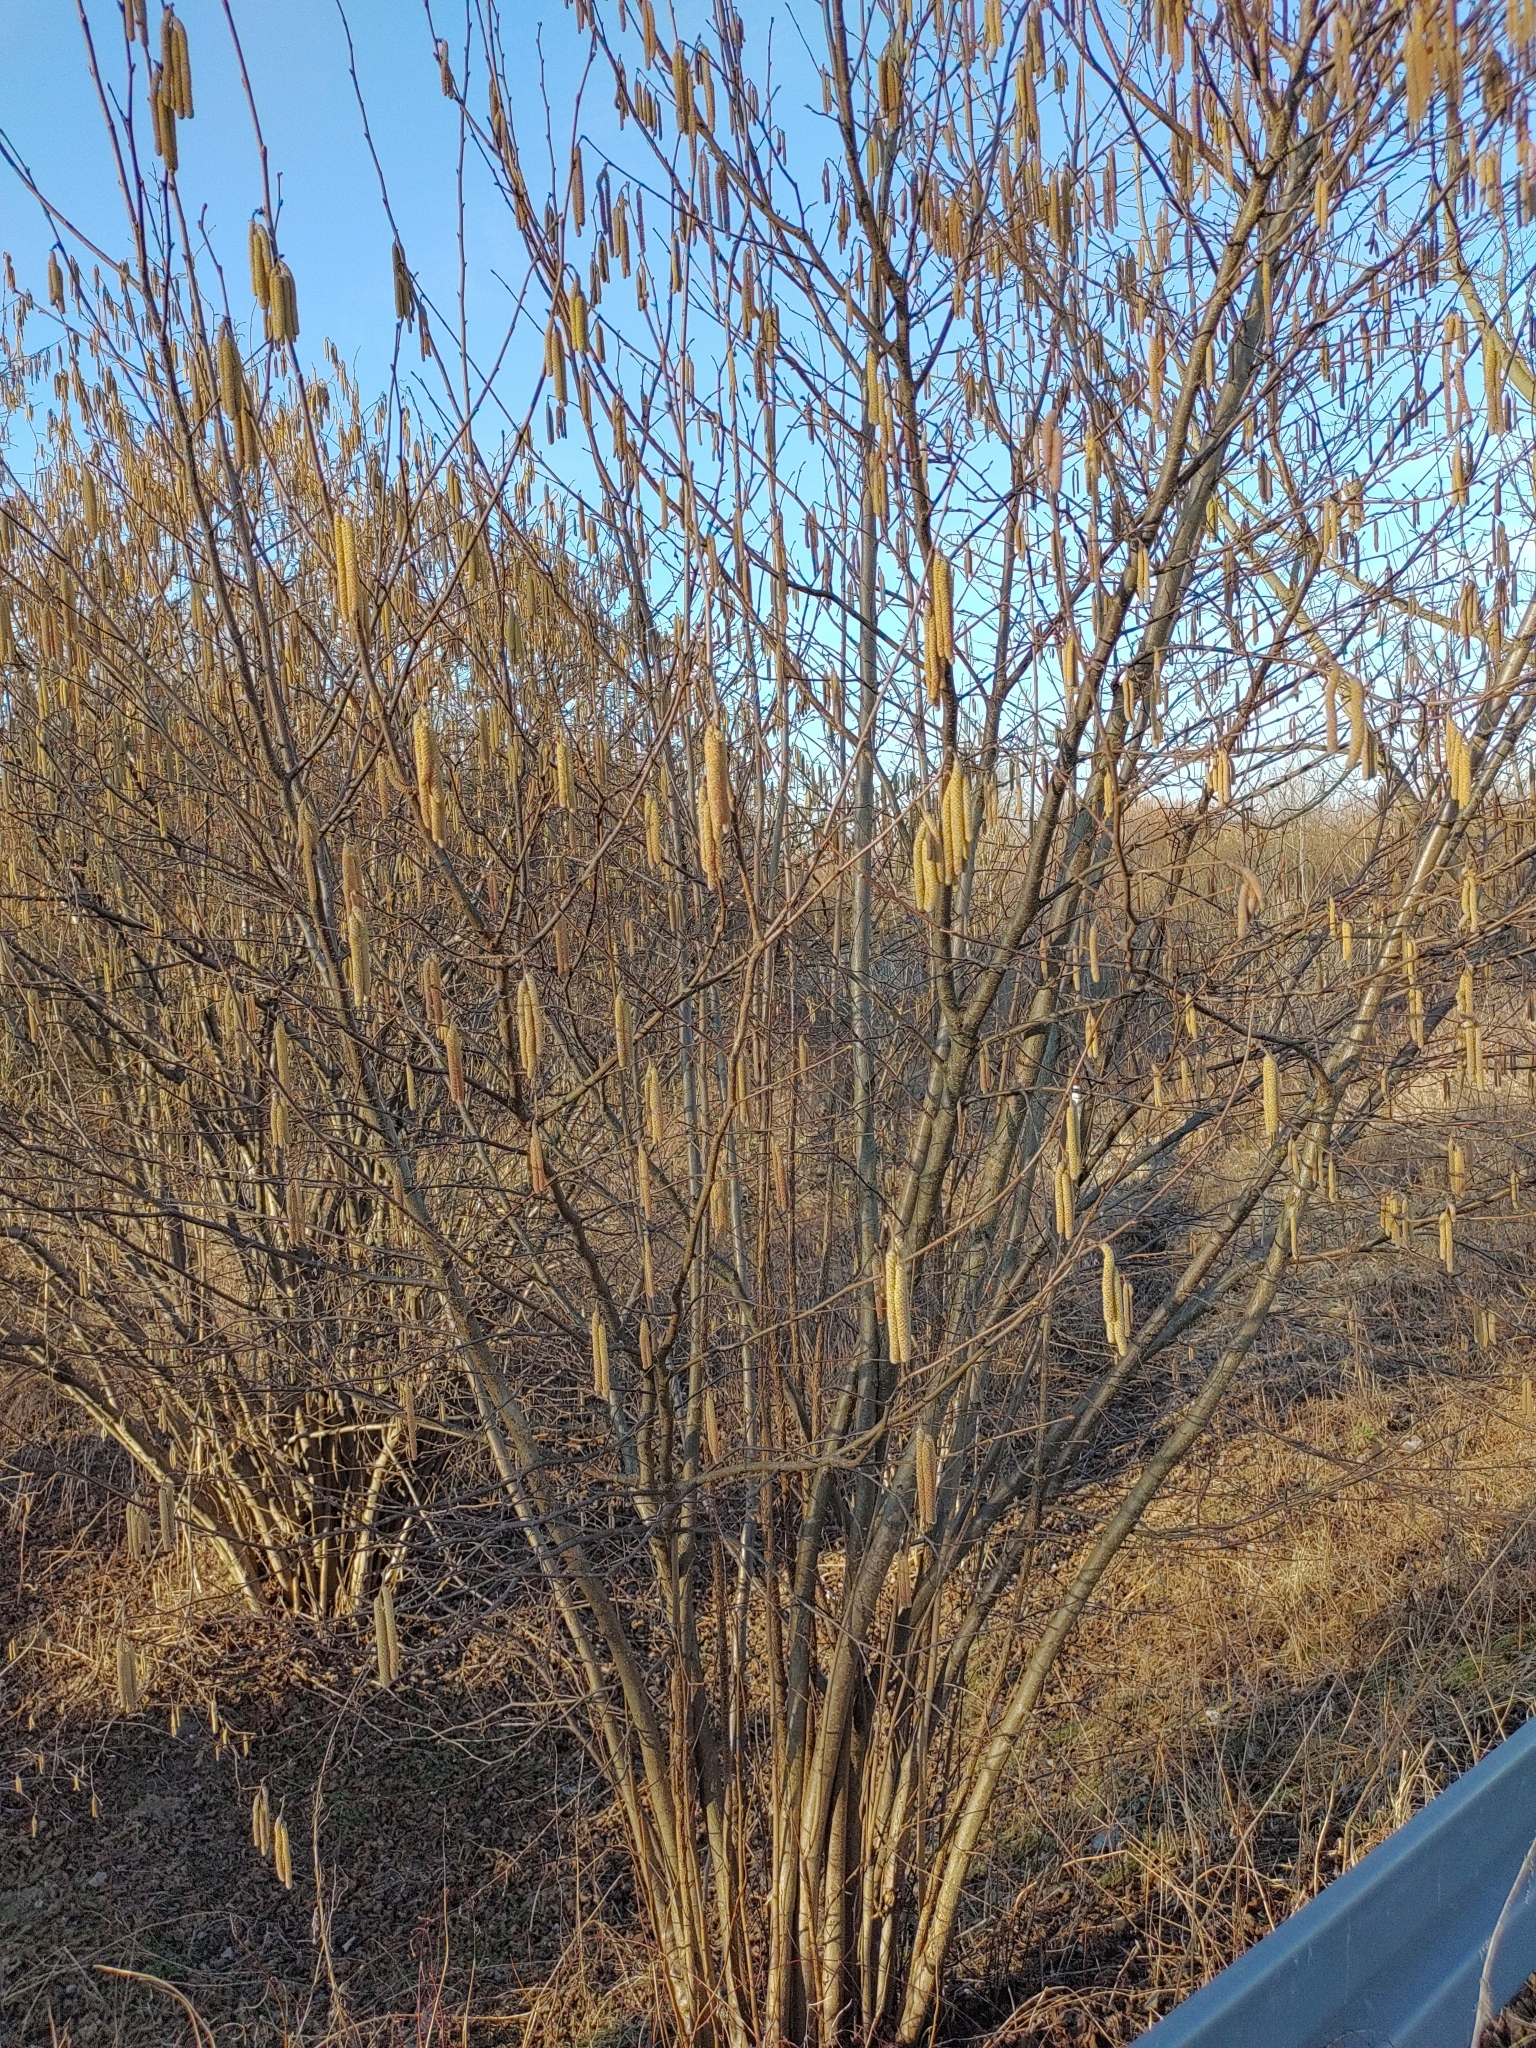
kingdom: Plantae
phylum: Tracheophyta
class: Magnoliopsida
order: Fagales
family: Betulaceae
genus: Corylus
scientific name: Corylus avellana
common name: European hazel
